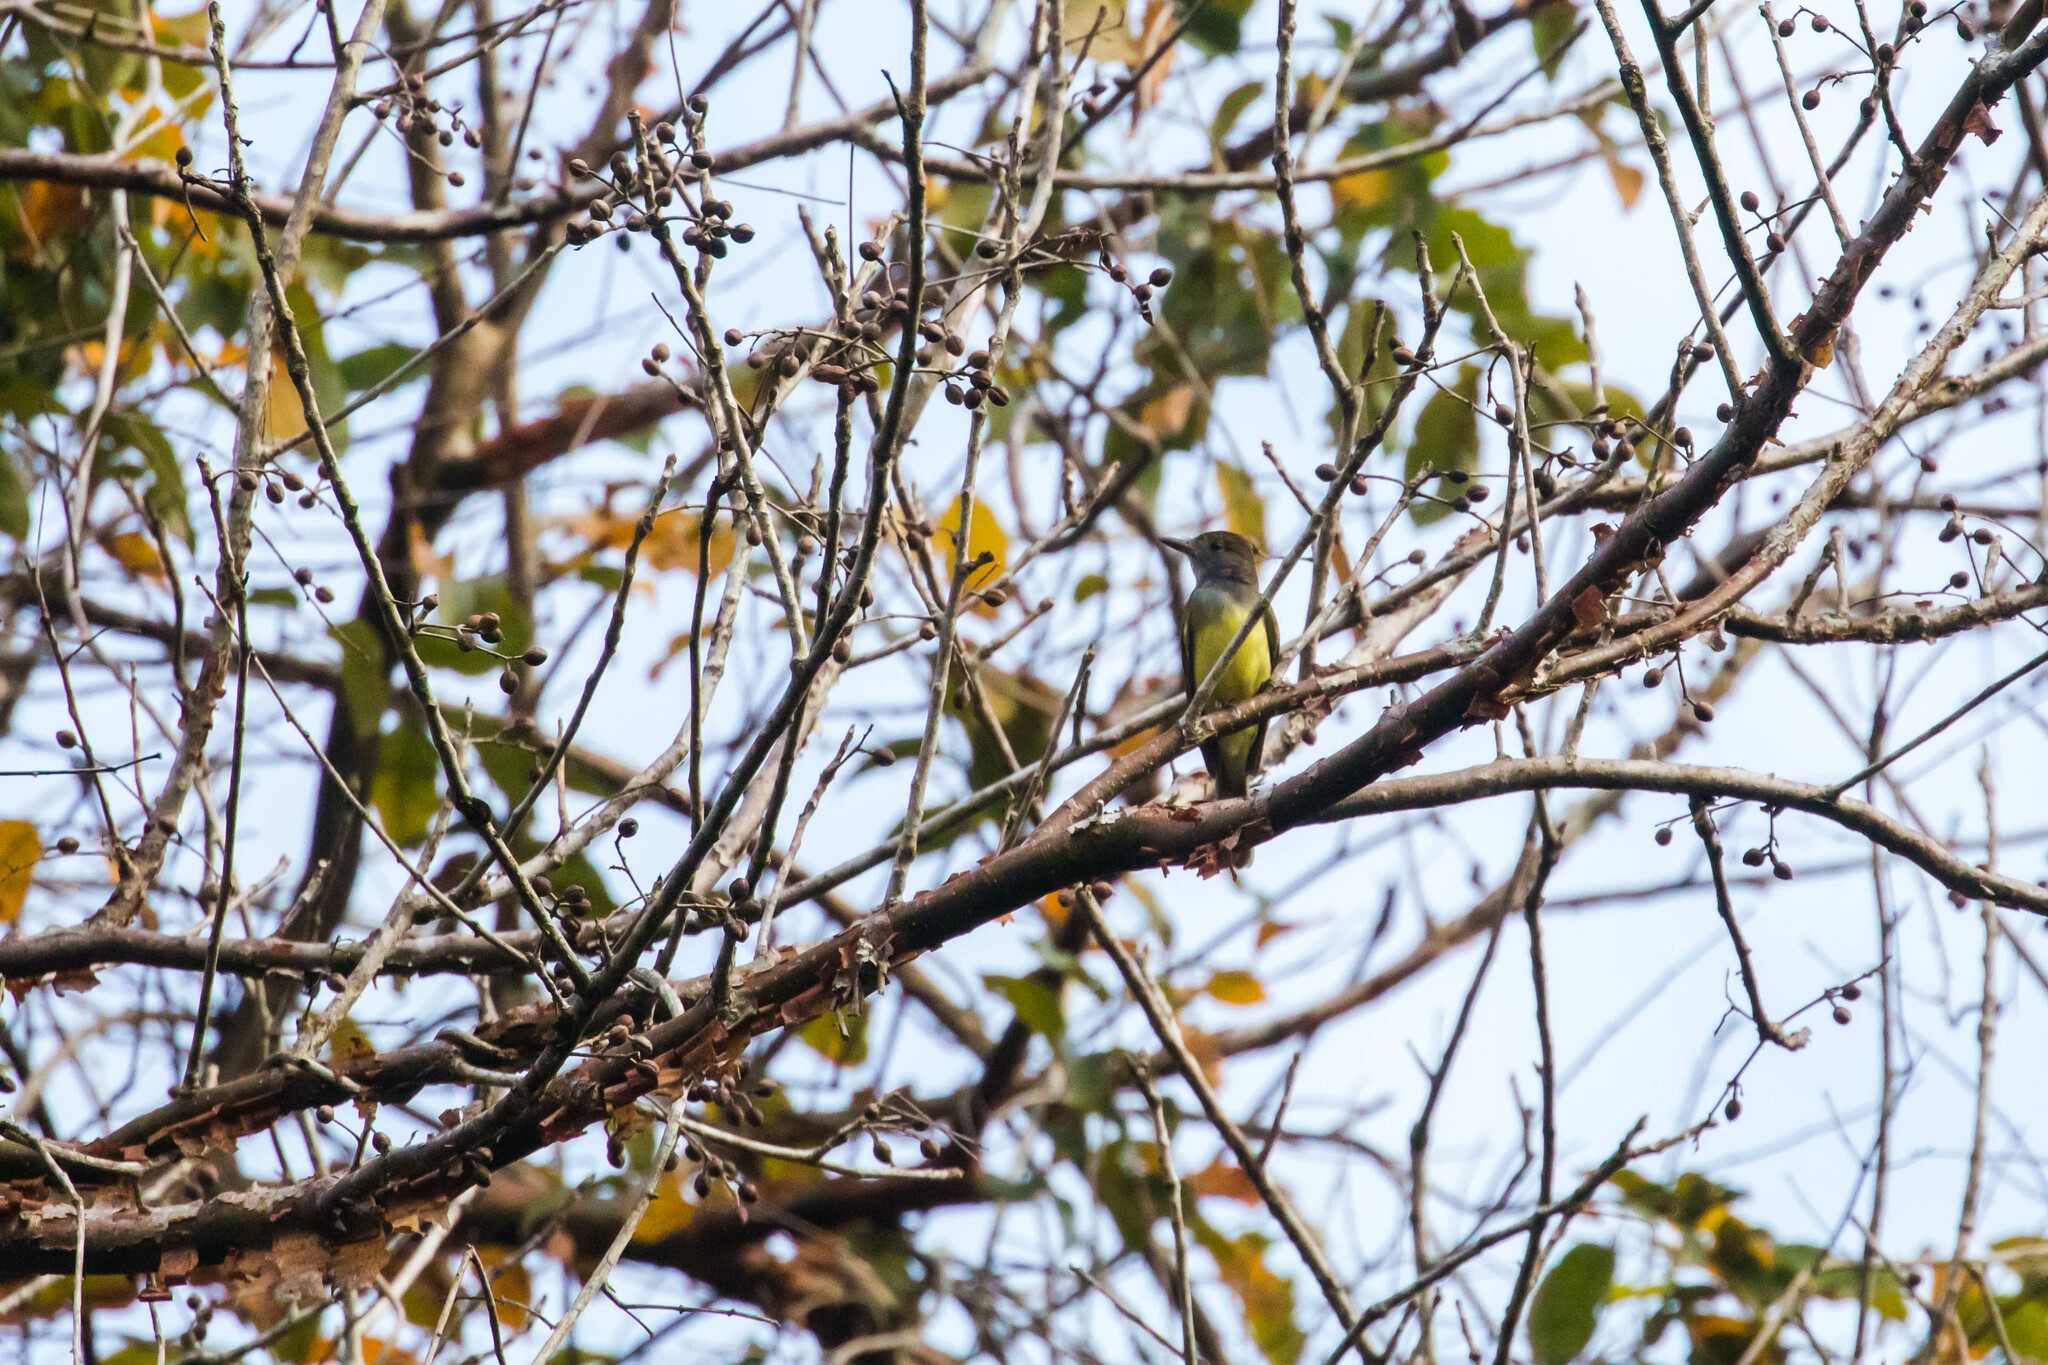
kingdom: Animalia
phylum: Chordata
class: Aves
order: Passeriformes
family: Tyrannidae
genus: Myiarchus
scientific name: Myiarchus crinitus
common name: Great crested flycatcher
